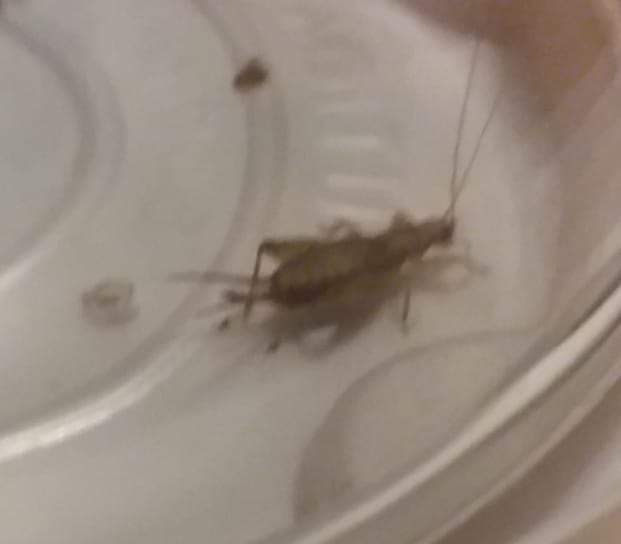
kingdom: Animalia
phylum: Arthropoda
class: Insecta
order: Orthoptera
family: Mogoplistidae
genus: Ornebius
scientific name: Ornebius aperta
